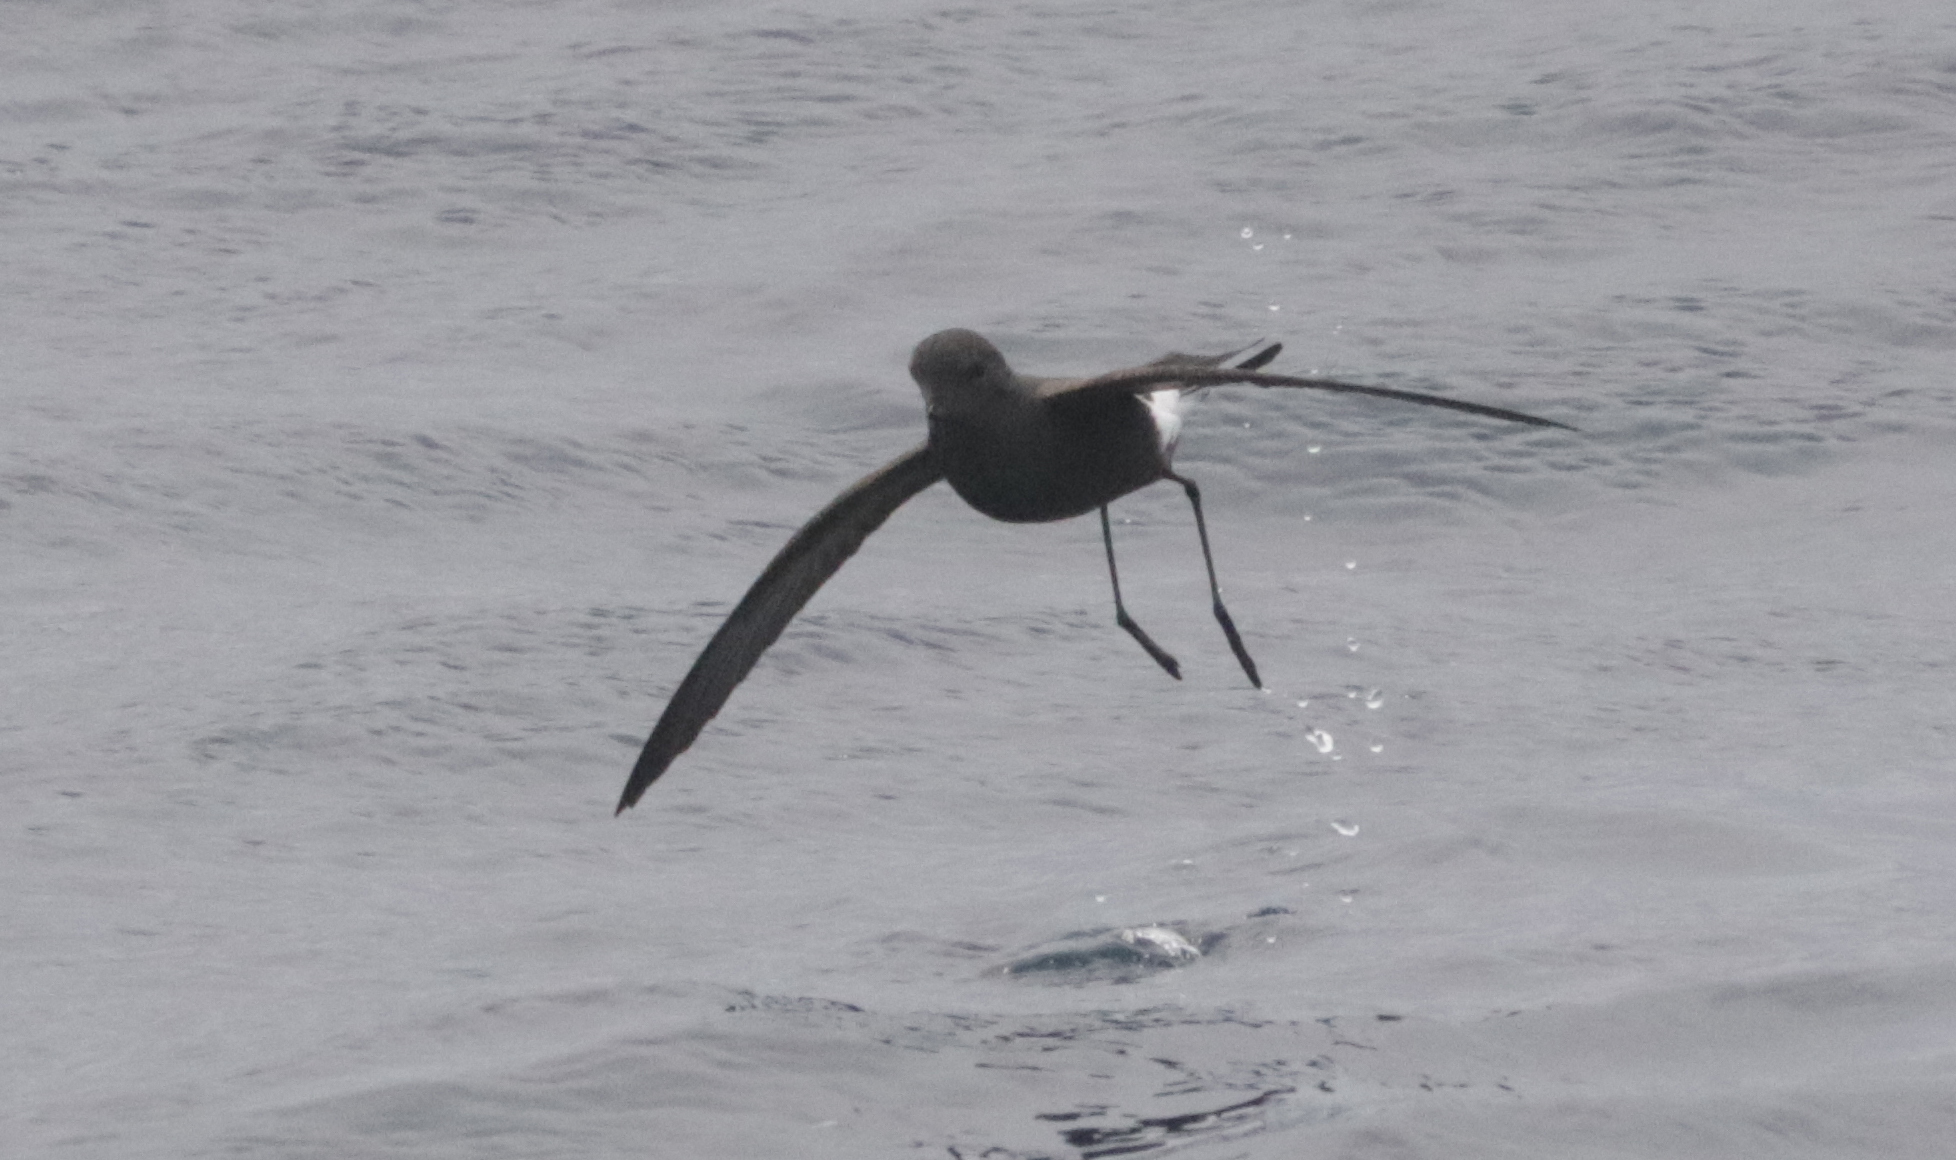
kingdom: Animalia
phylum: Chordata
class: Aves
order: Procellariiformes
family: Hydrobatidae
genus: Oceanites
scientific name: Oceanites oceanicus
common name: Wilson's storm petrel
